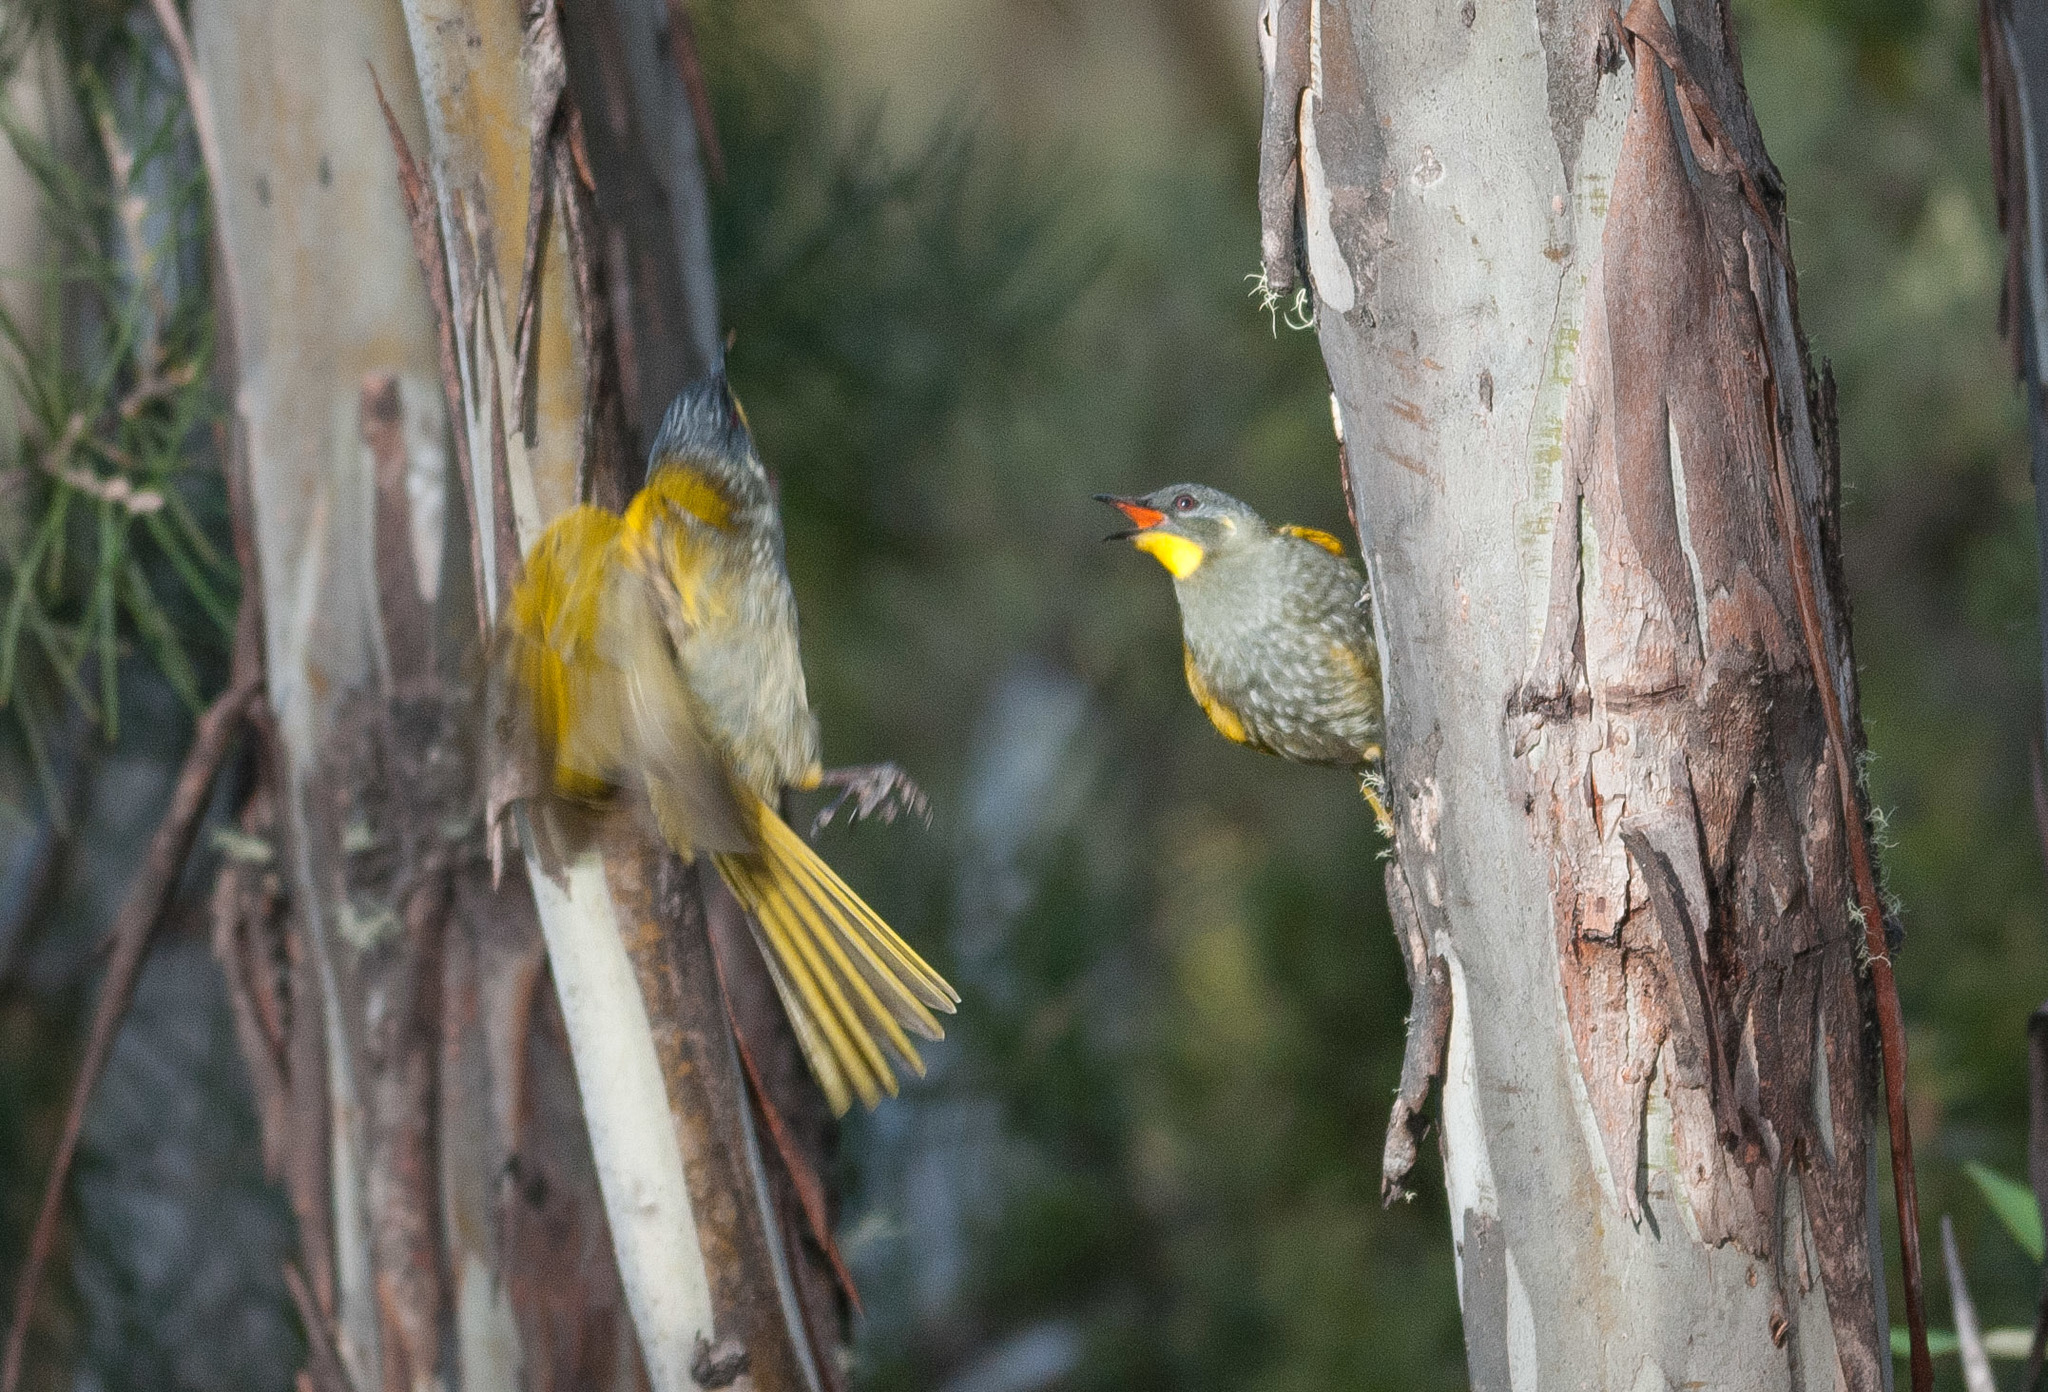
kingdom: Animalia
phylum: Chordata
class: Aves
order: Passeriformes
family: Meliphagidae
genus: Nesoptilotis
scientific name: Nesoptilotis flavicollis
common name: Yellow-throated honeyeater
